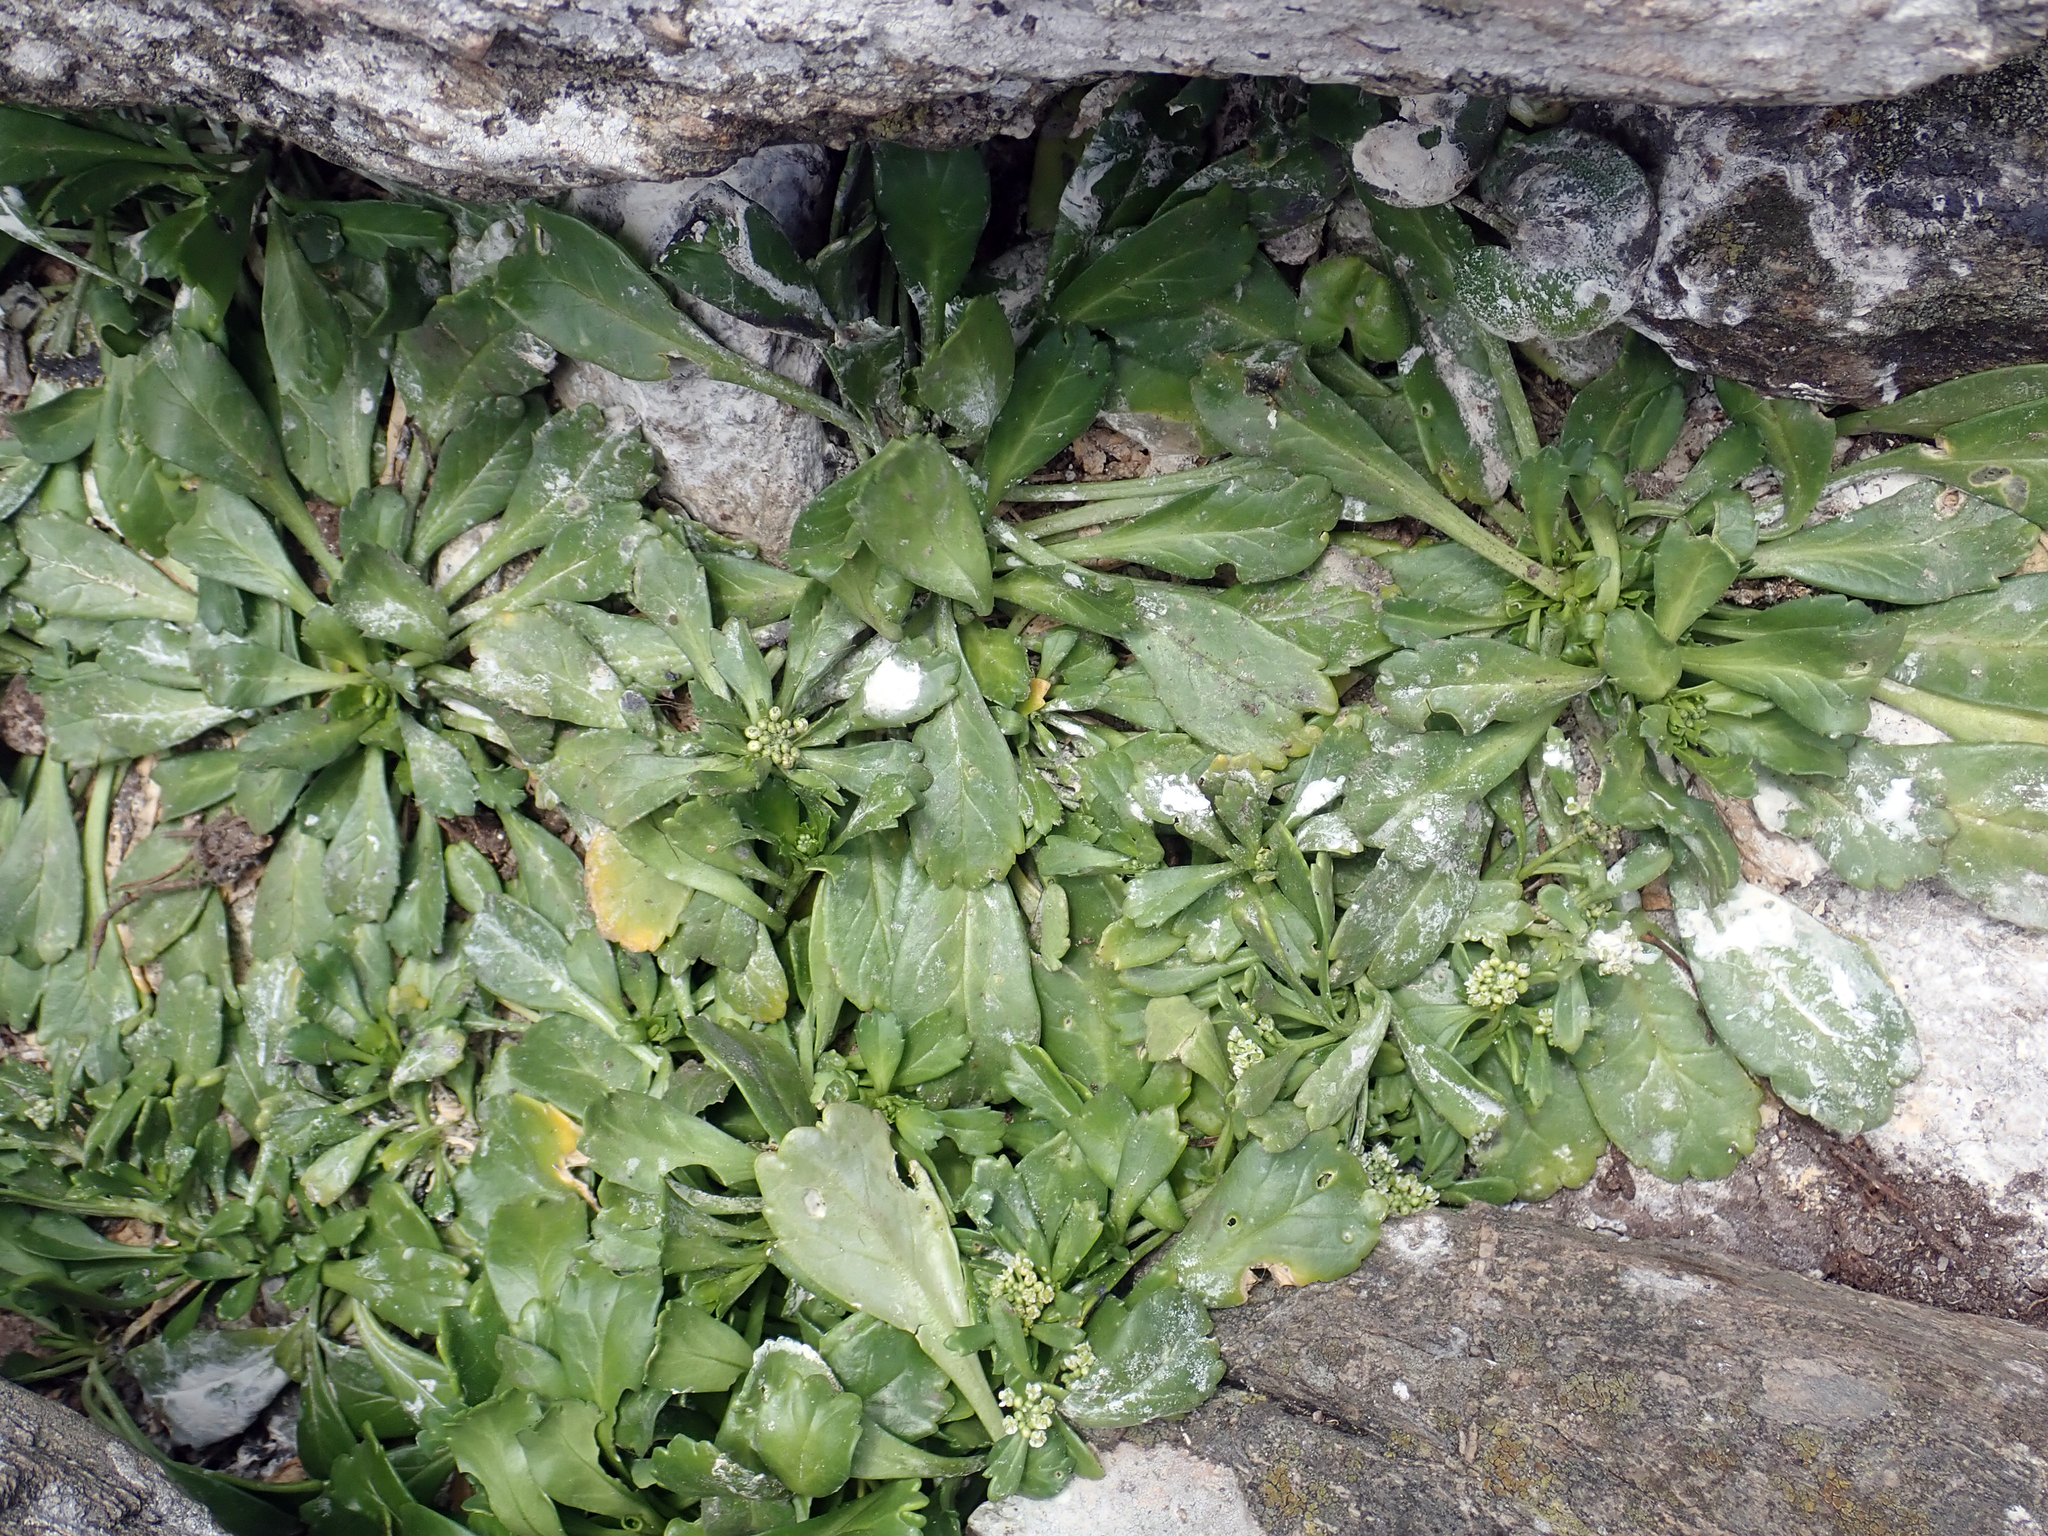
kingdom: Plantae
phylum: Tracheophyta
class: Magnoliopsida
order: Brassicales
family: Brassicaceae
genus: Lepidium
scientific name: Lepidium oligodontum
